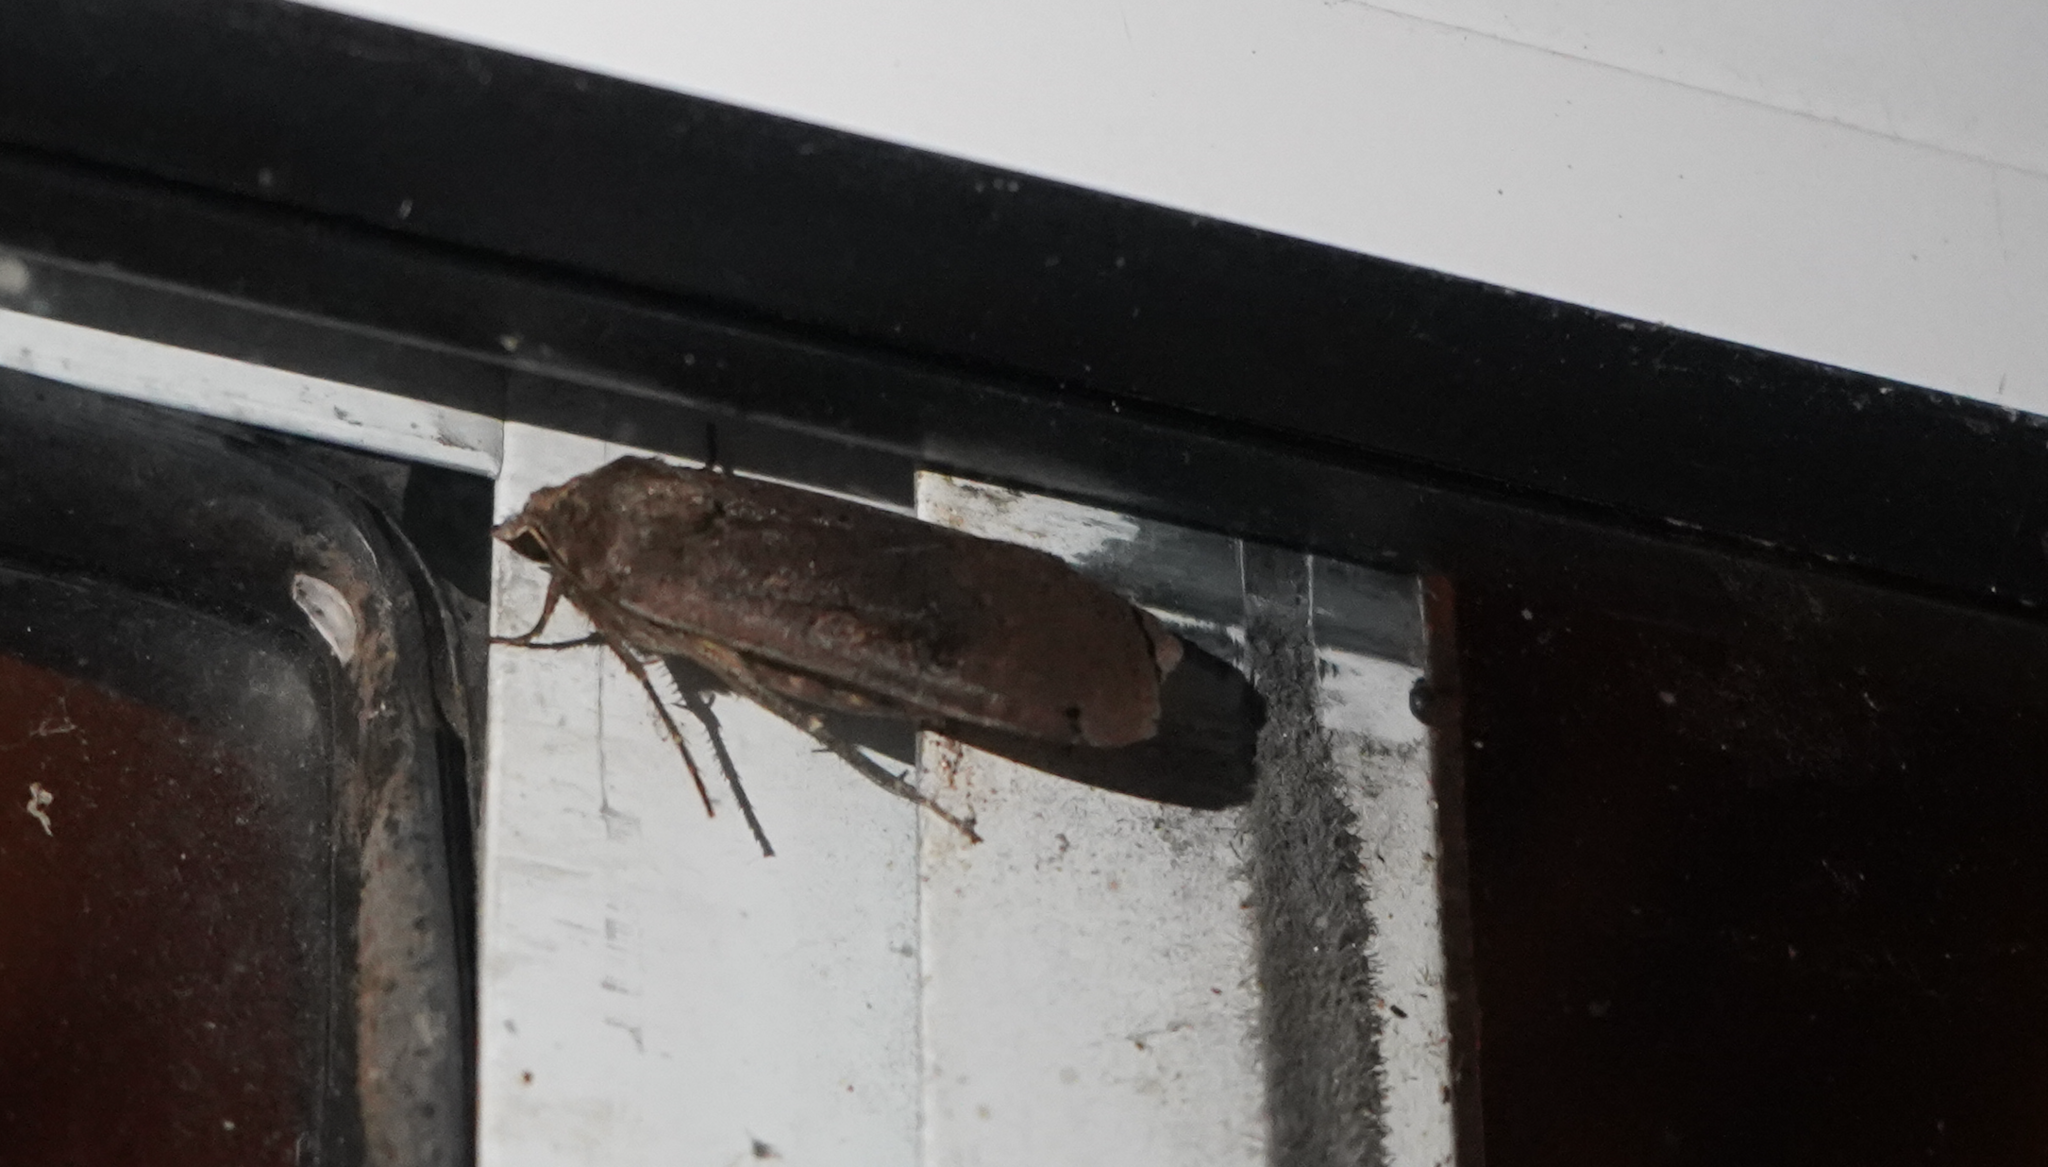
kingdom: Animalia
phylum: Arthropoda
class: Insecta
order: Lepidoptera
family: Noctuidae
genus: Noctua
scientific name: Noctua pronuba
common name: Large yellow underwing
